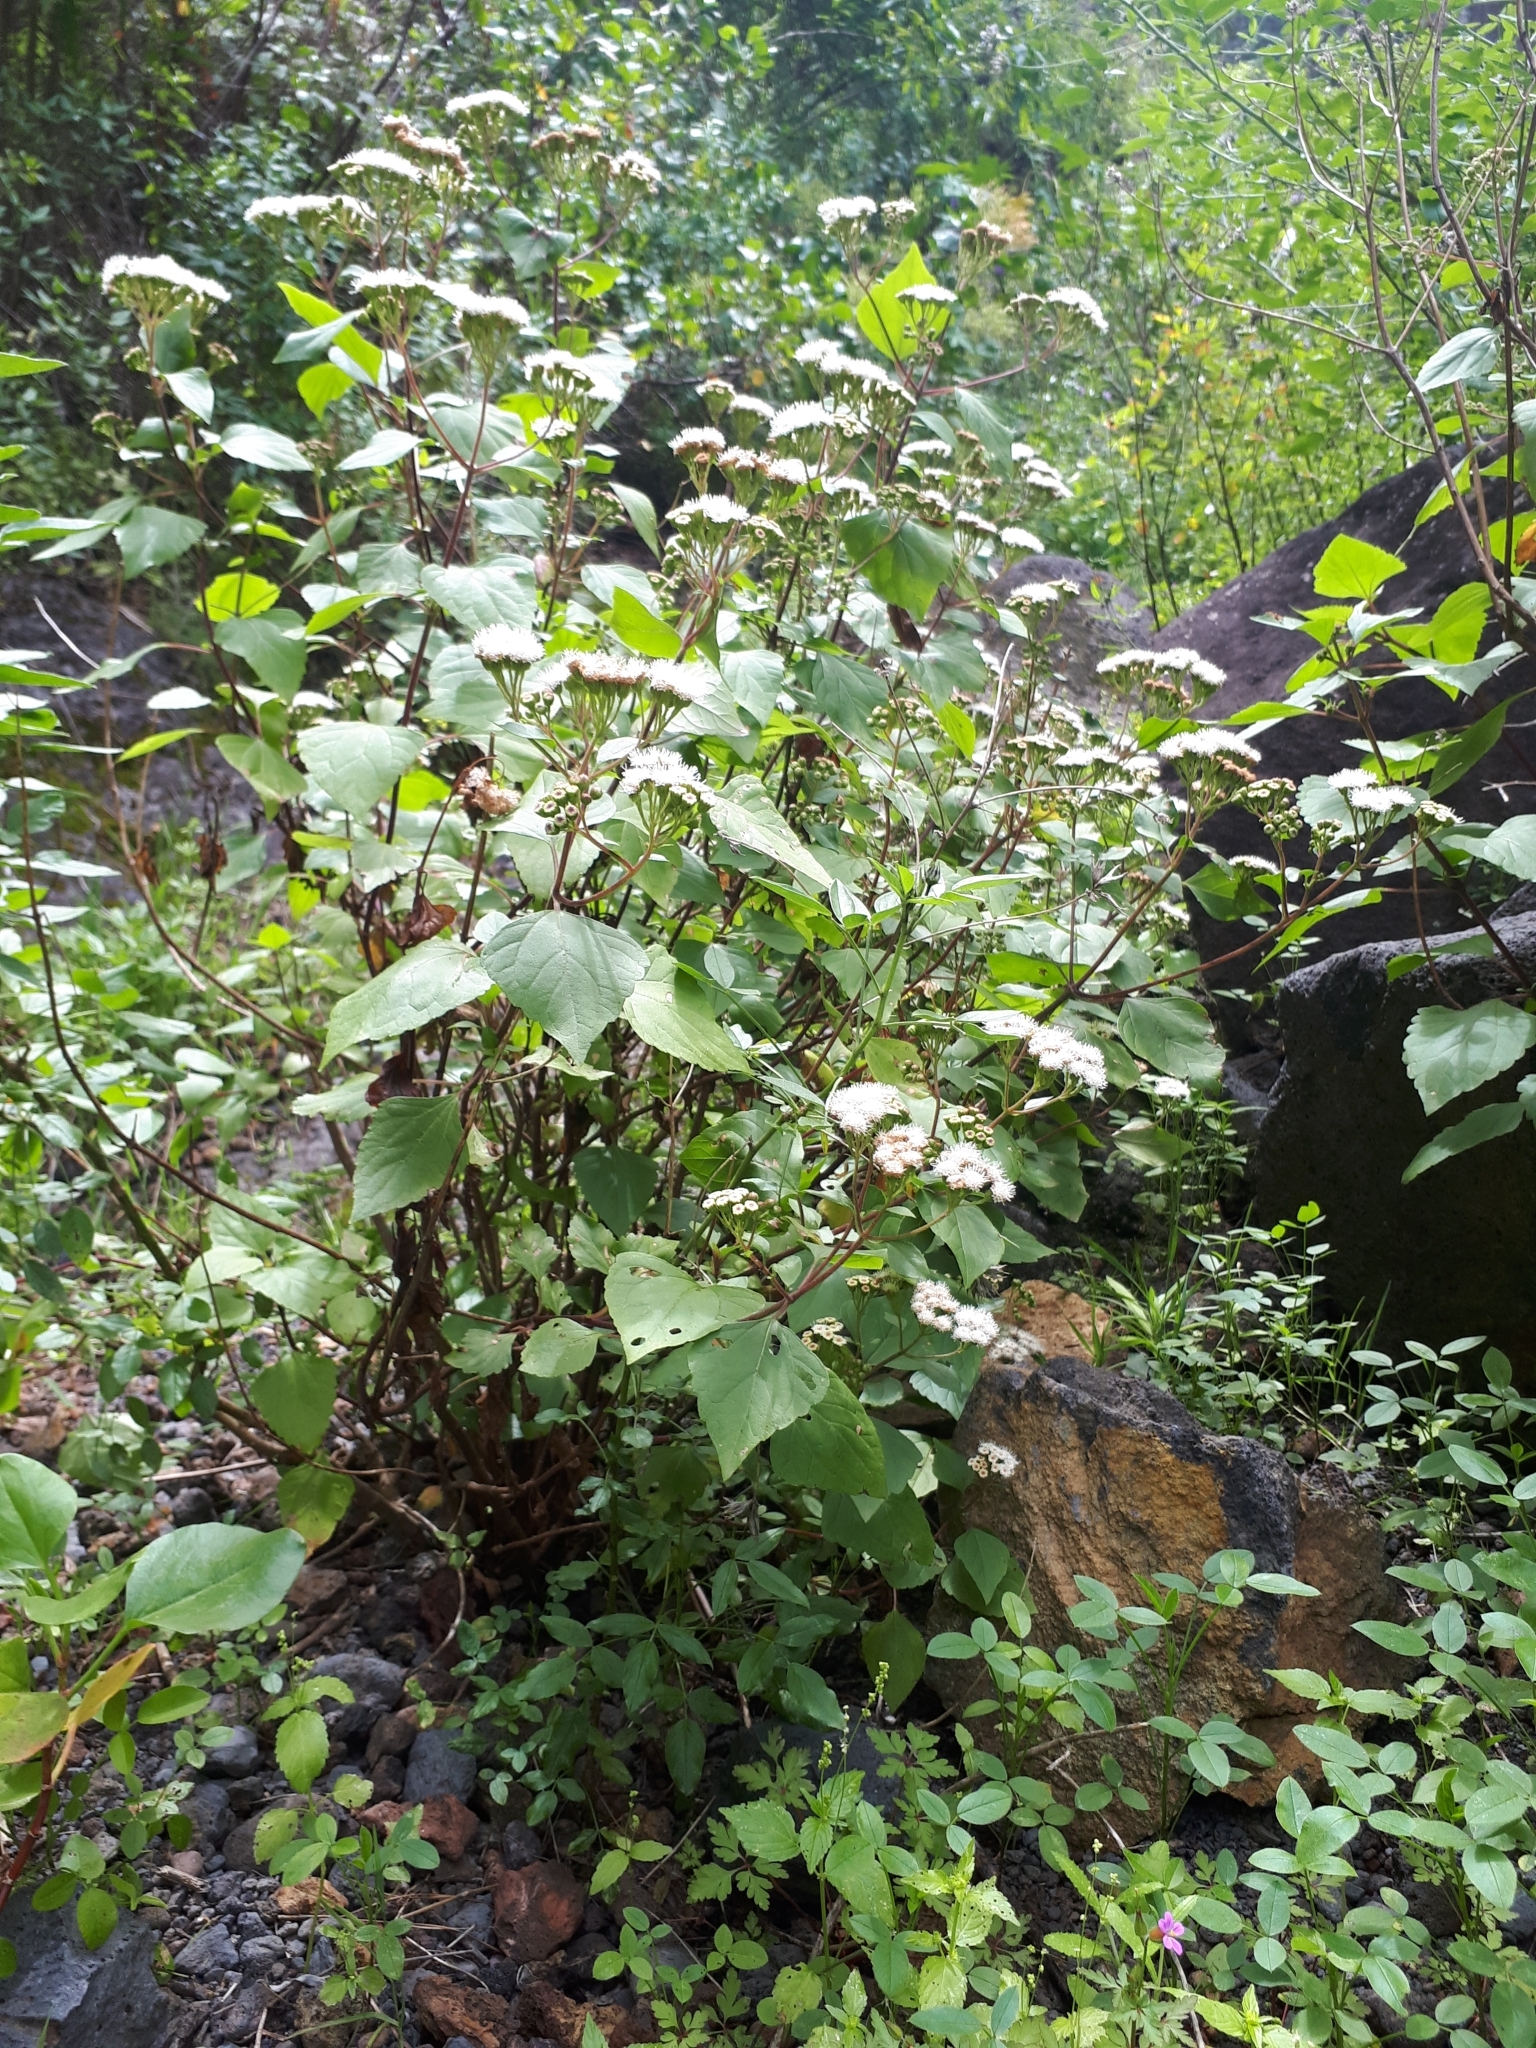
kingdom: Plantae
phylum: Tracheophyta
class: Magnoliopsida
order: Asterales
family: Asteraceae
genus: Ageratina
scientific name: Ageratina adenophora
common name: Sticky snakeroot
